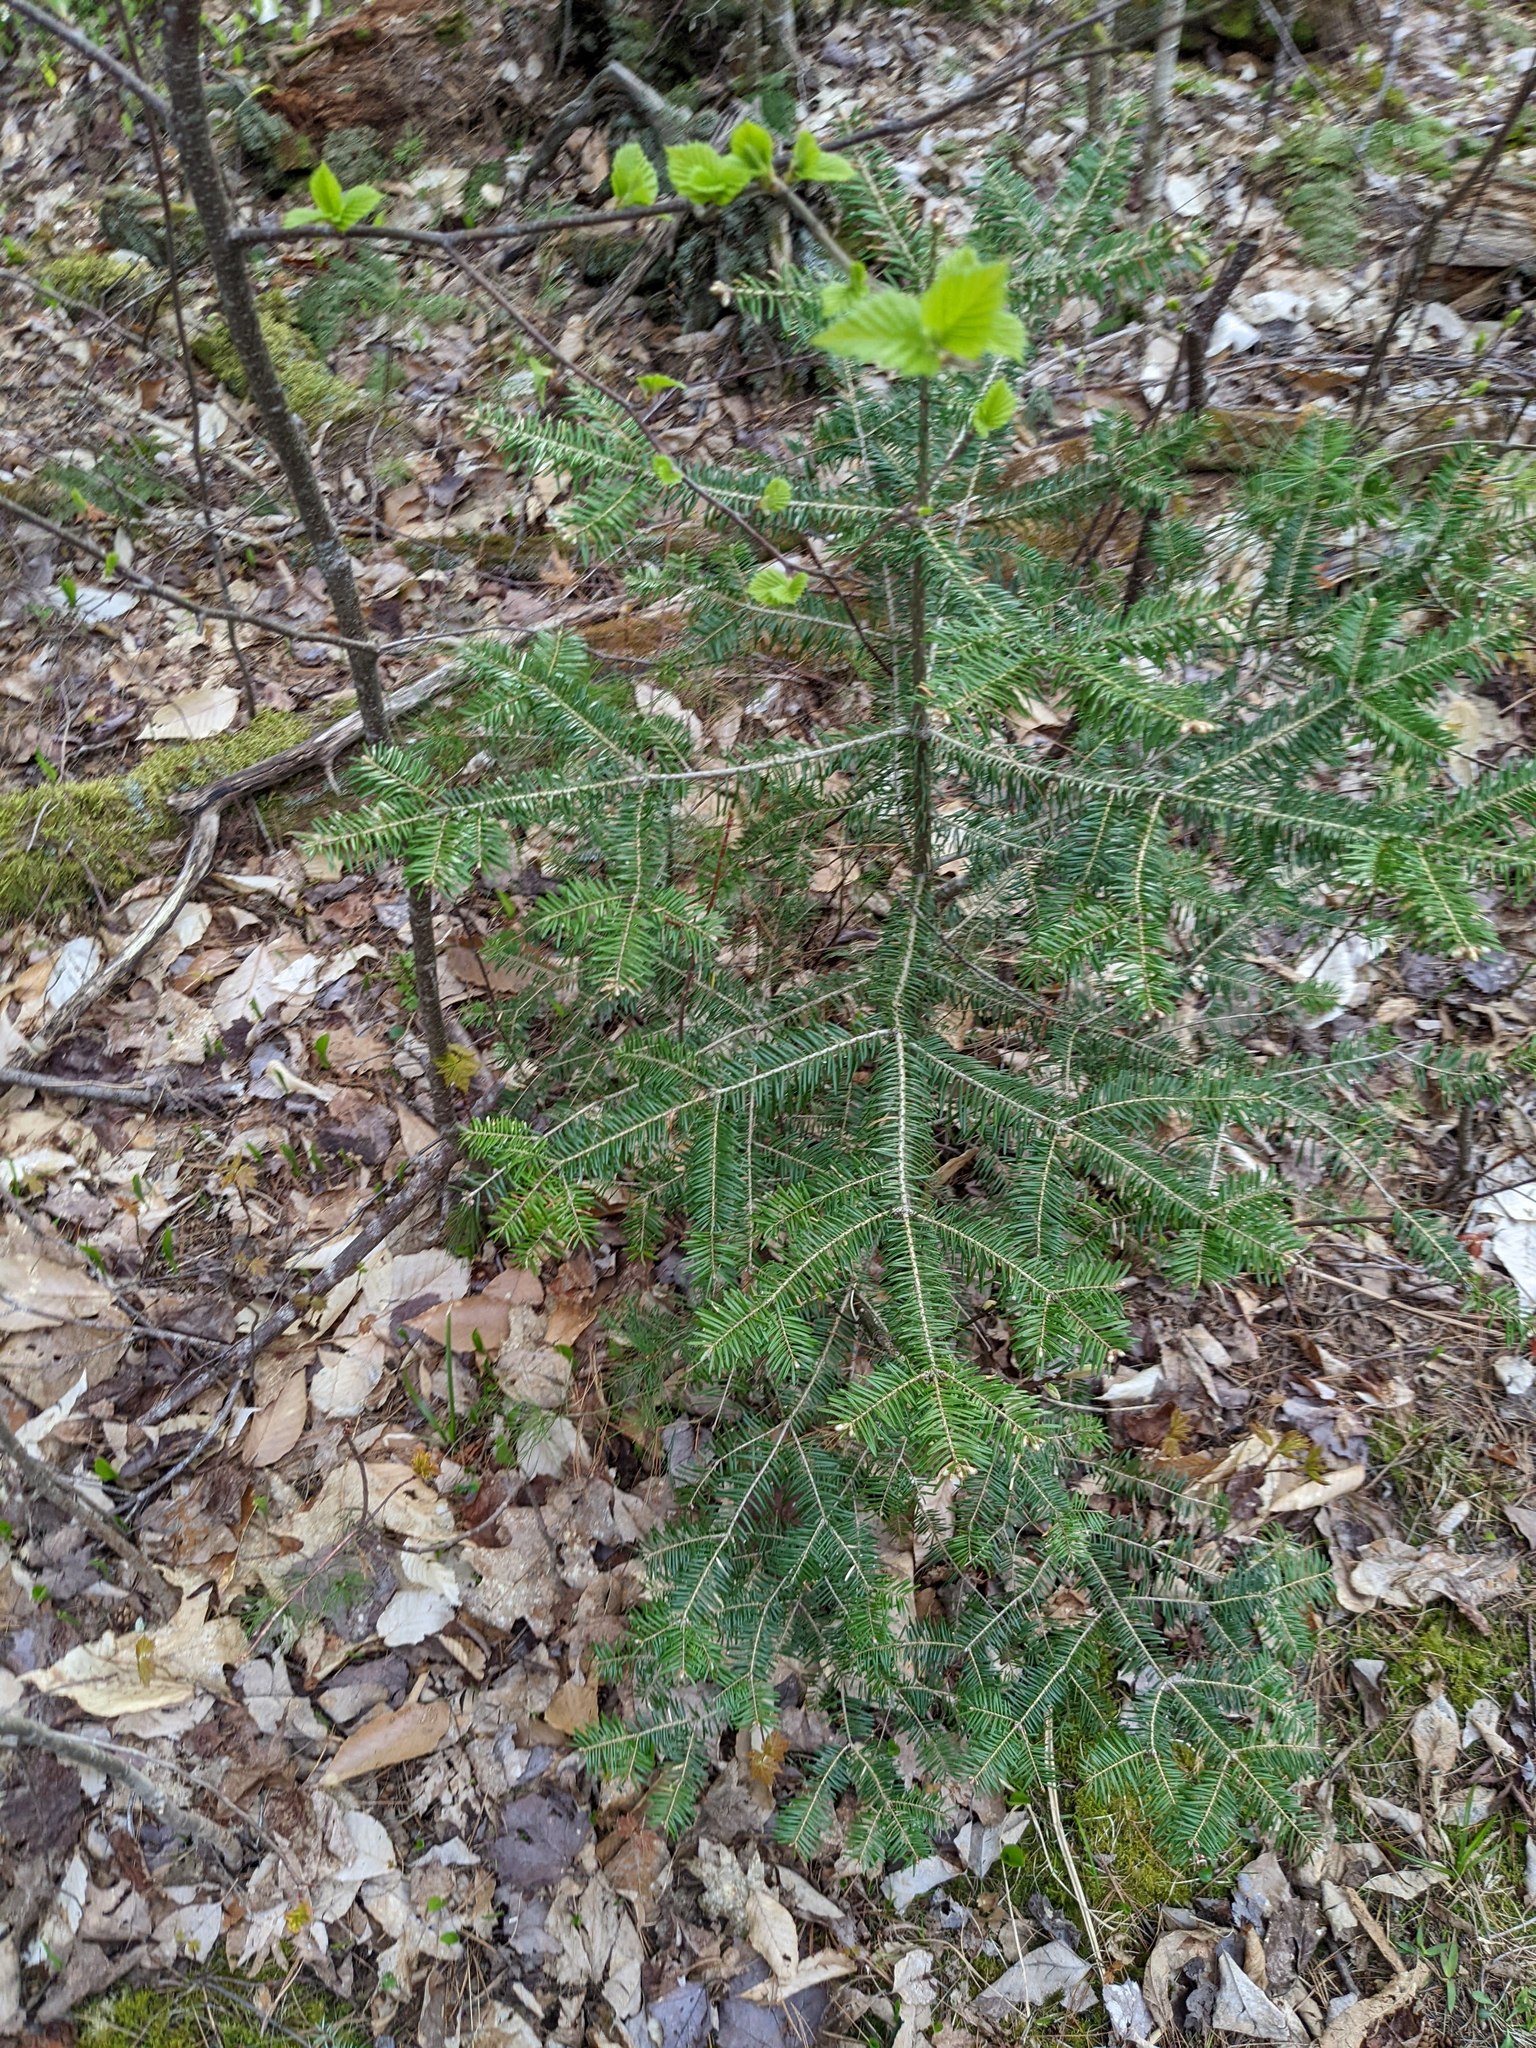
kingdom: Plantae
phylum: Tracheophyta
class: Pinopsida
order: Pinales
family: Pinaceae
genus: Abies
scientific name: Abies balsamea
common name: Balsam fir
